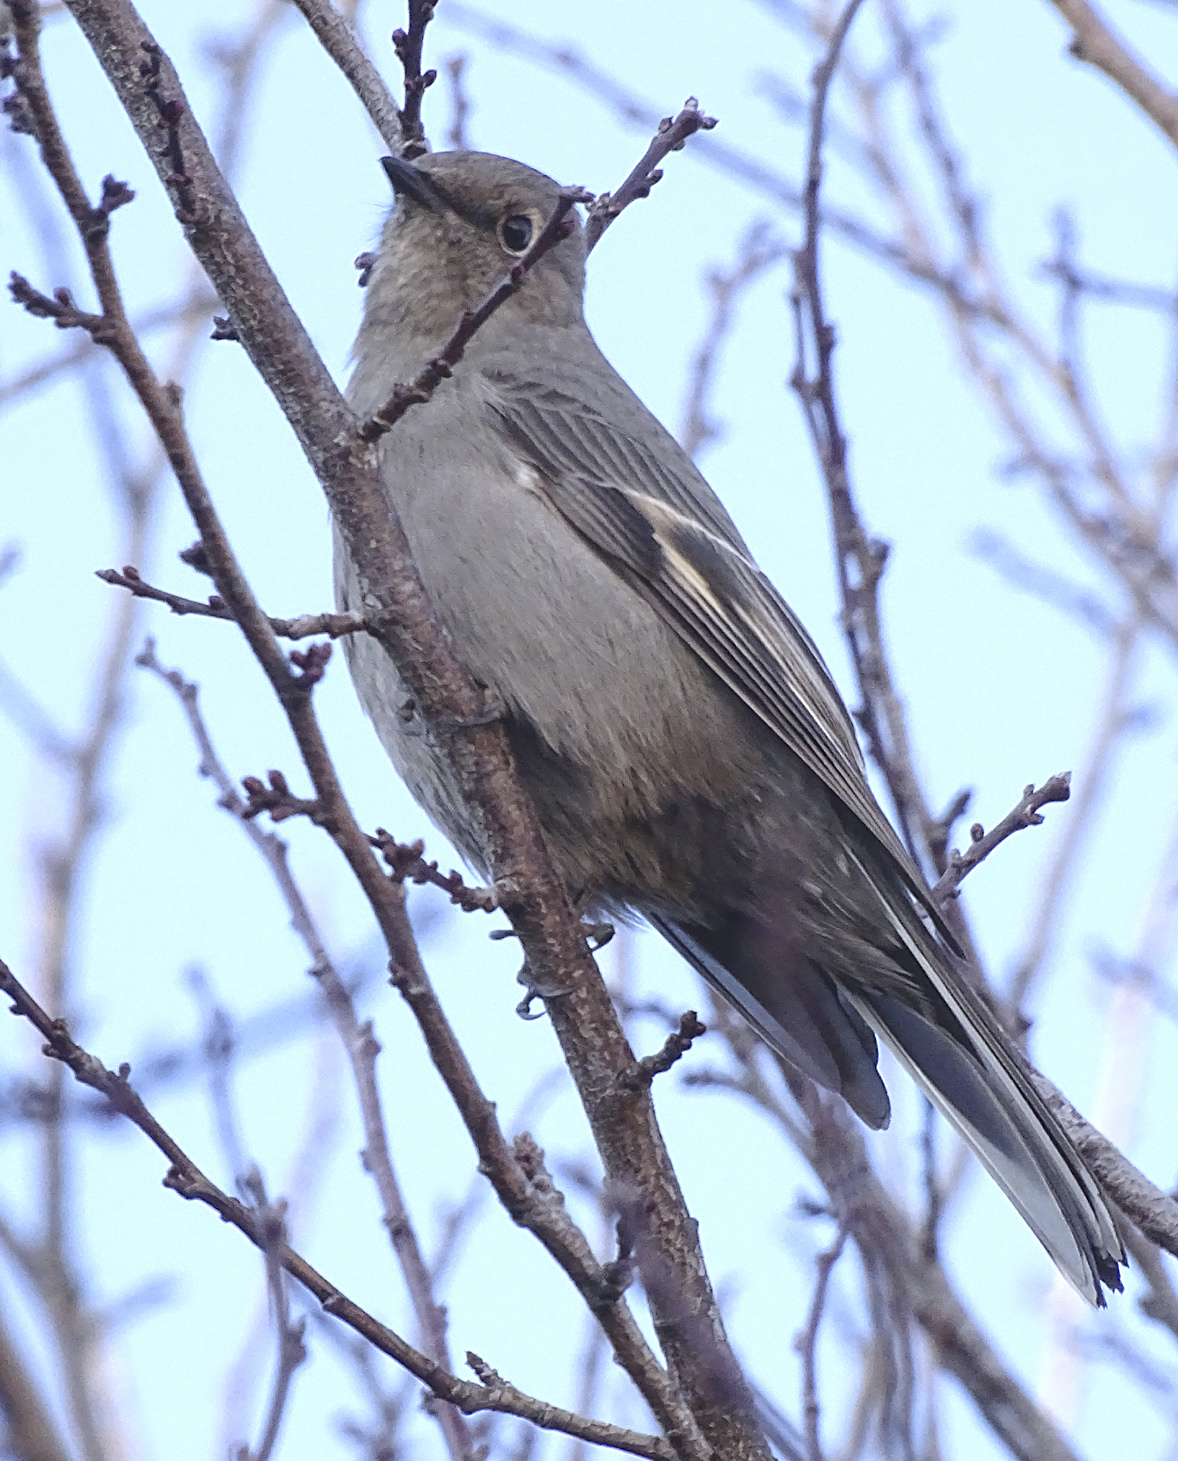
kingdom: Animalia
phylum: Chordata
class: Aves
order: Passeriformes
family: Turdidae
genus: Myadestes
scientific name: Myadestes townsendi
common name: Townsend's solitaire
